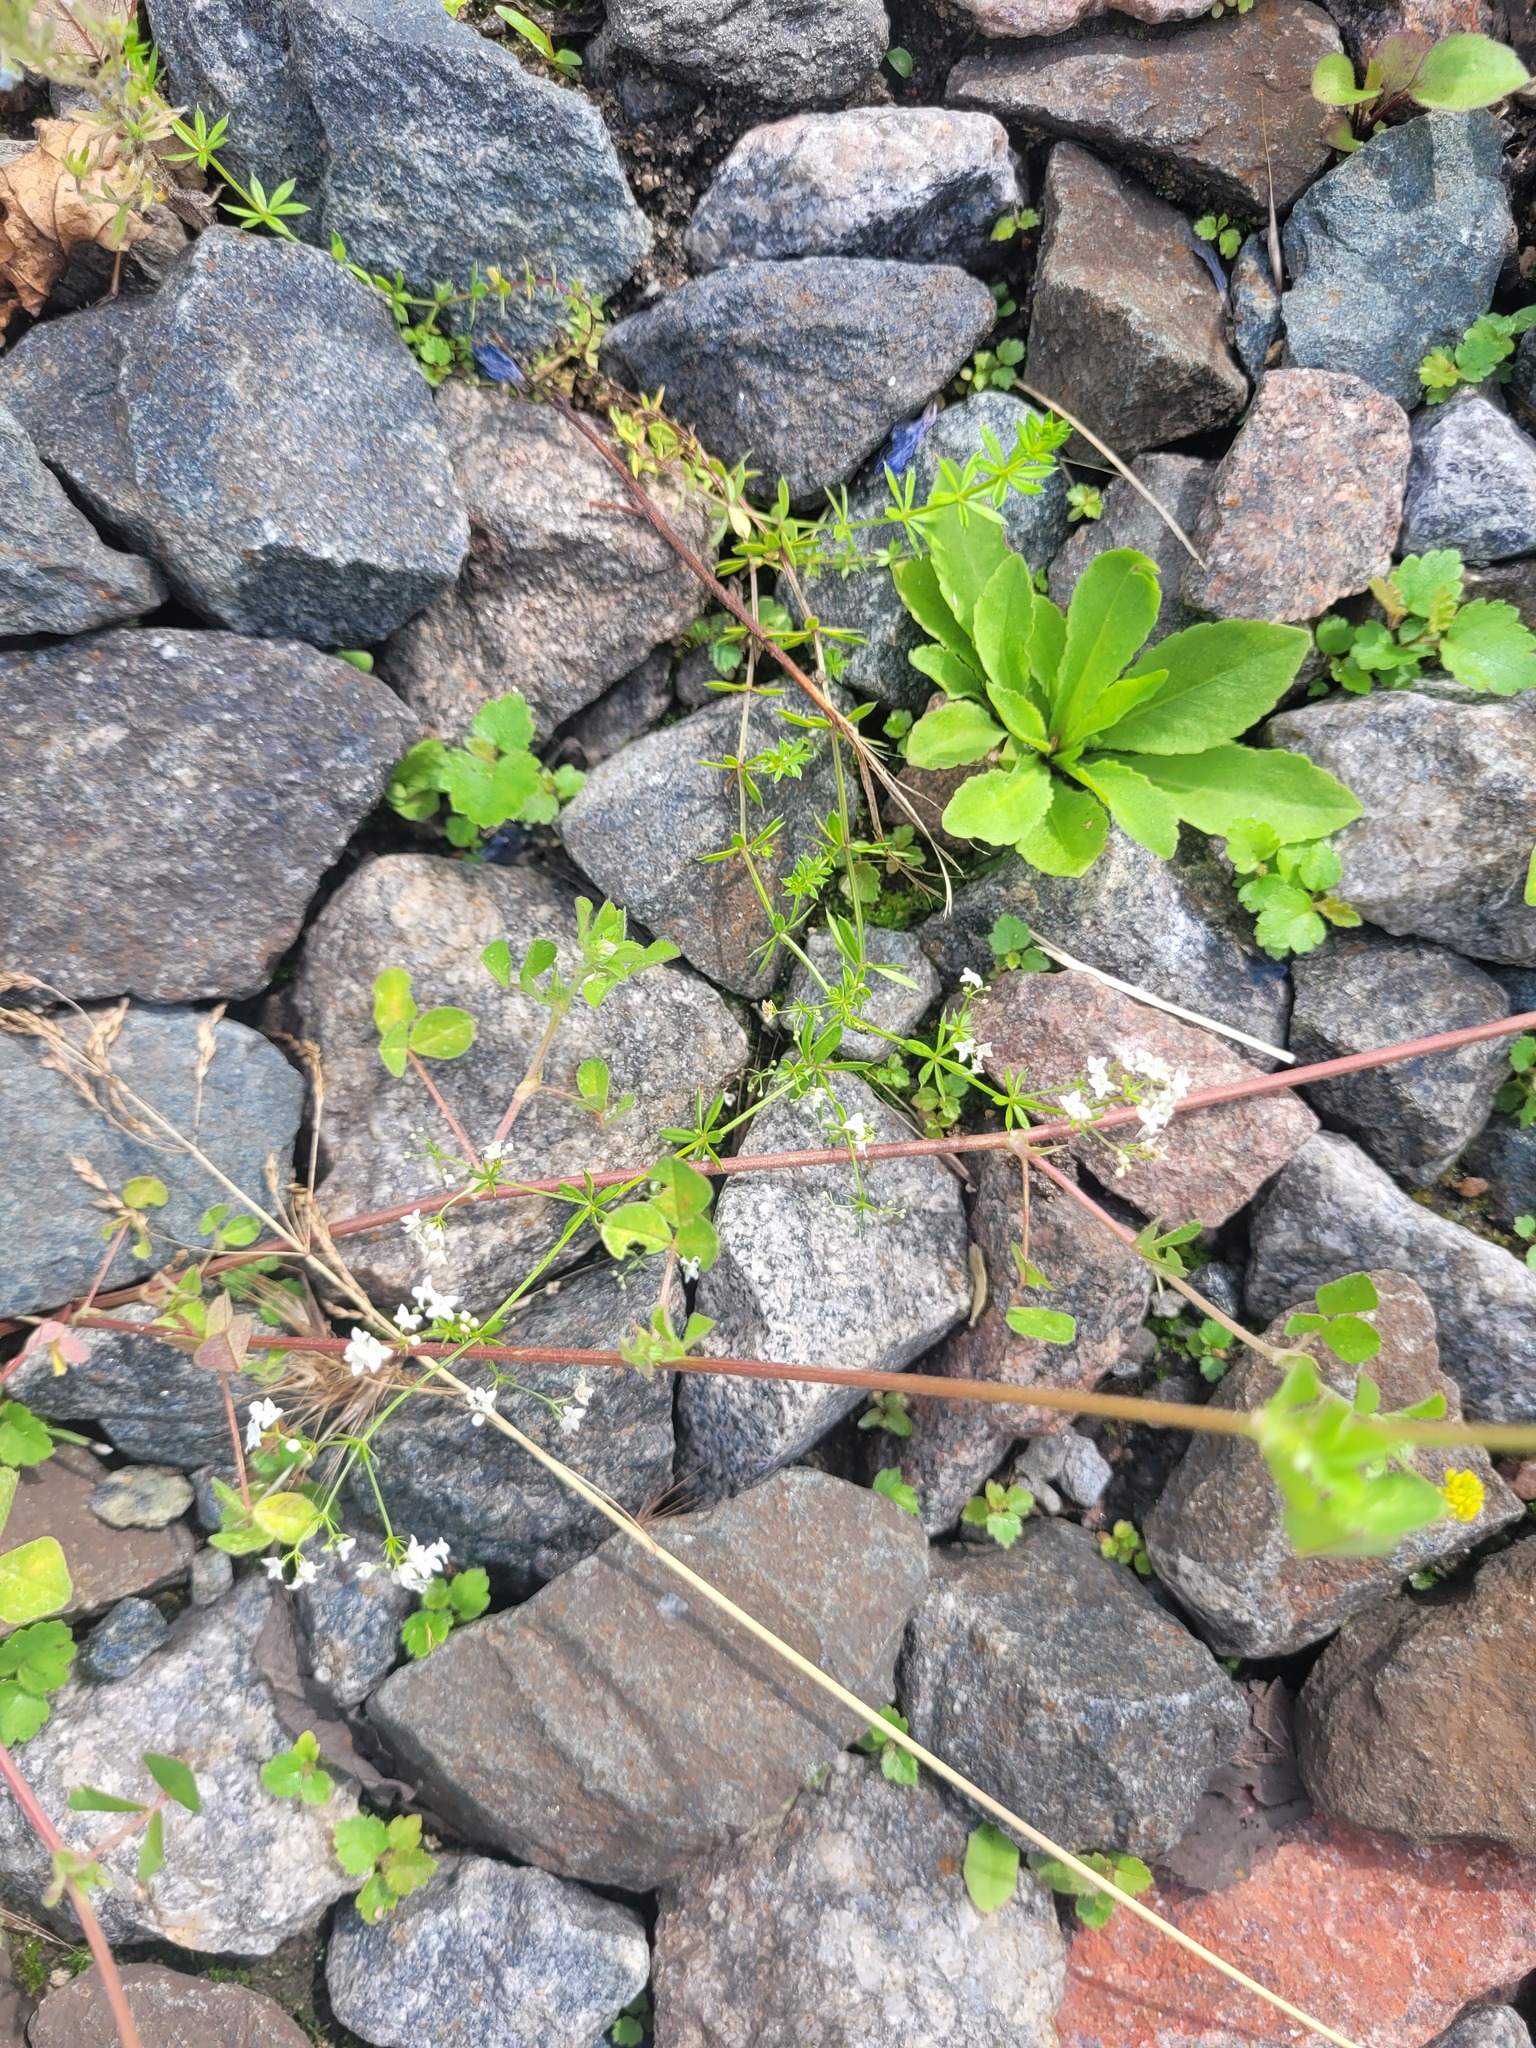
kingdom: Plantae
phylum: Tracheophyta
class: Magnoliopsida
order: Gentianales
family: Rubiaceae
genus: Galium
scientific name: Galium uliginosum
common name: Fen bedstraw
